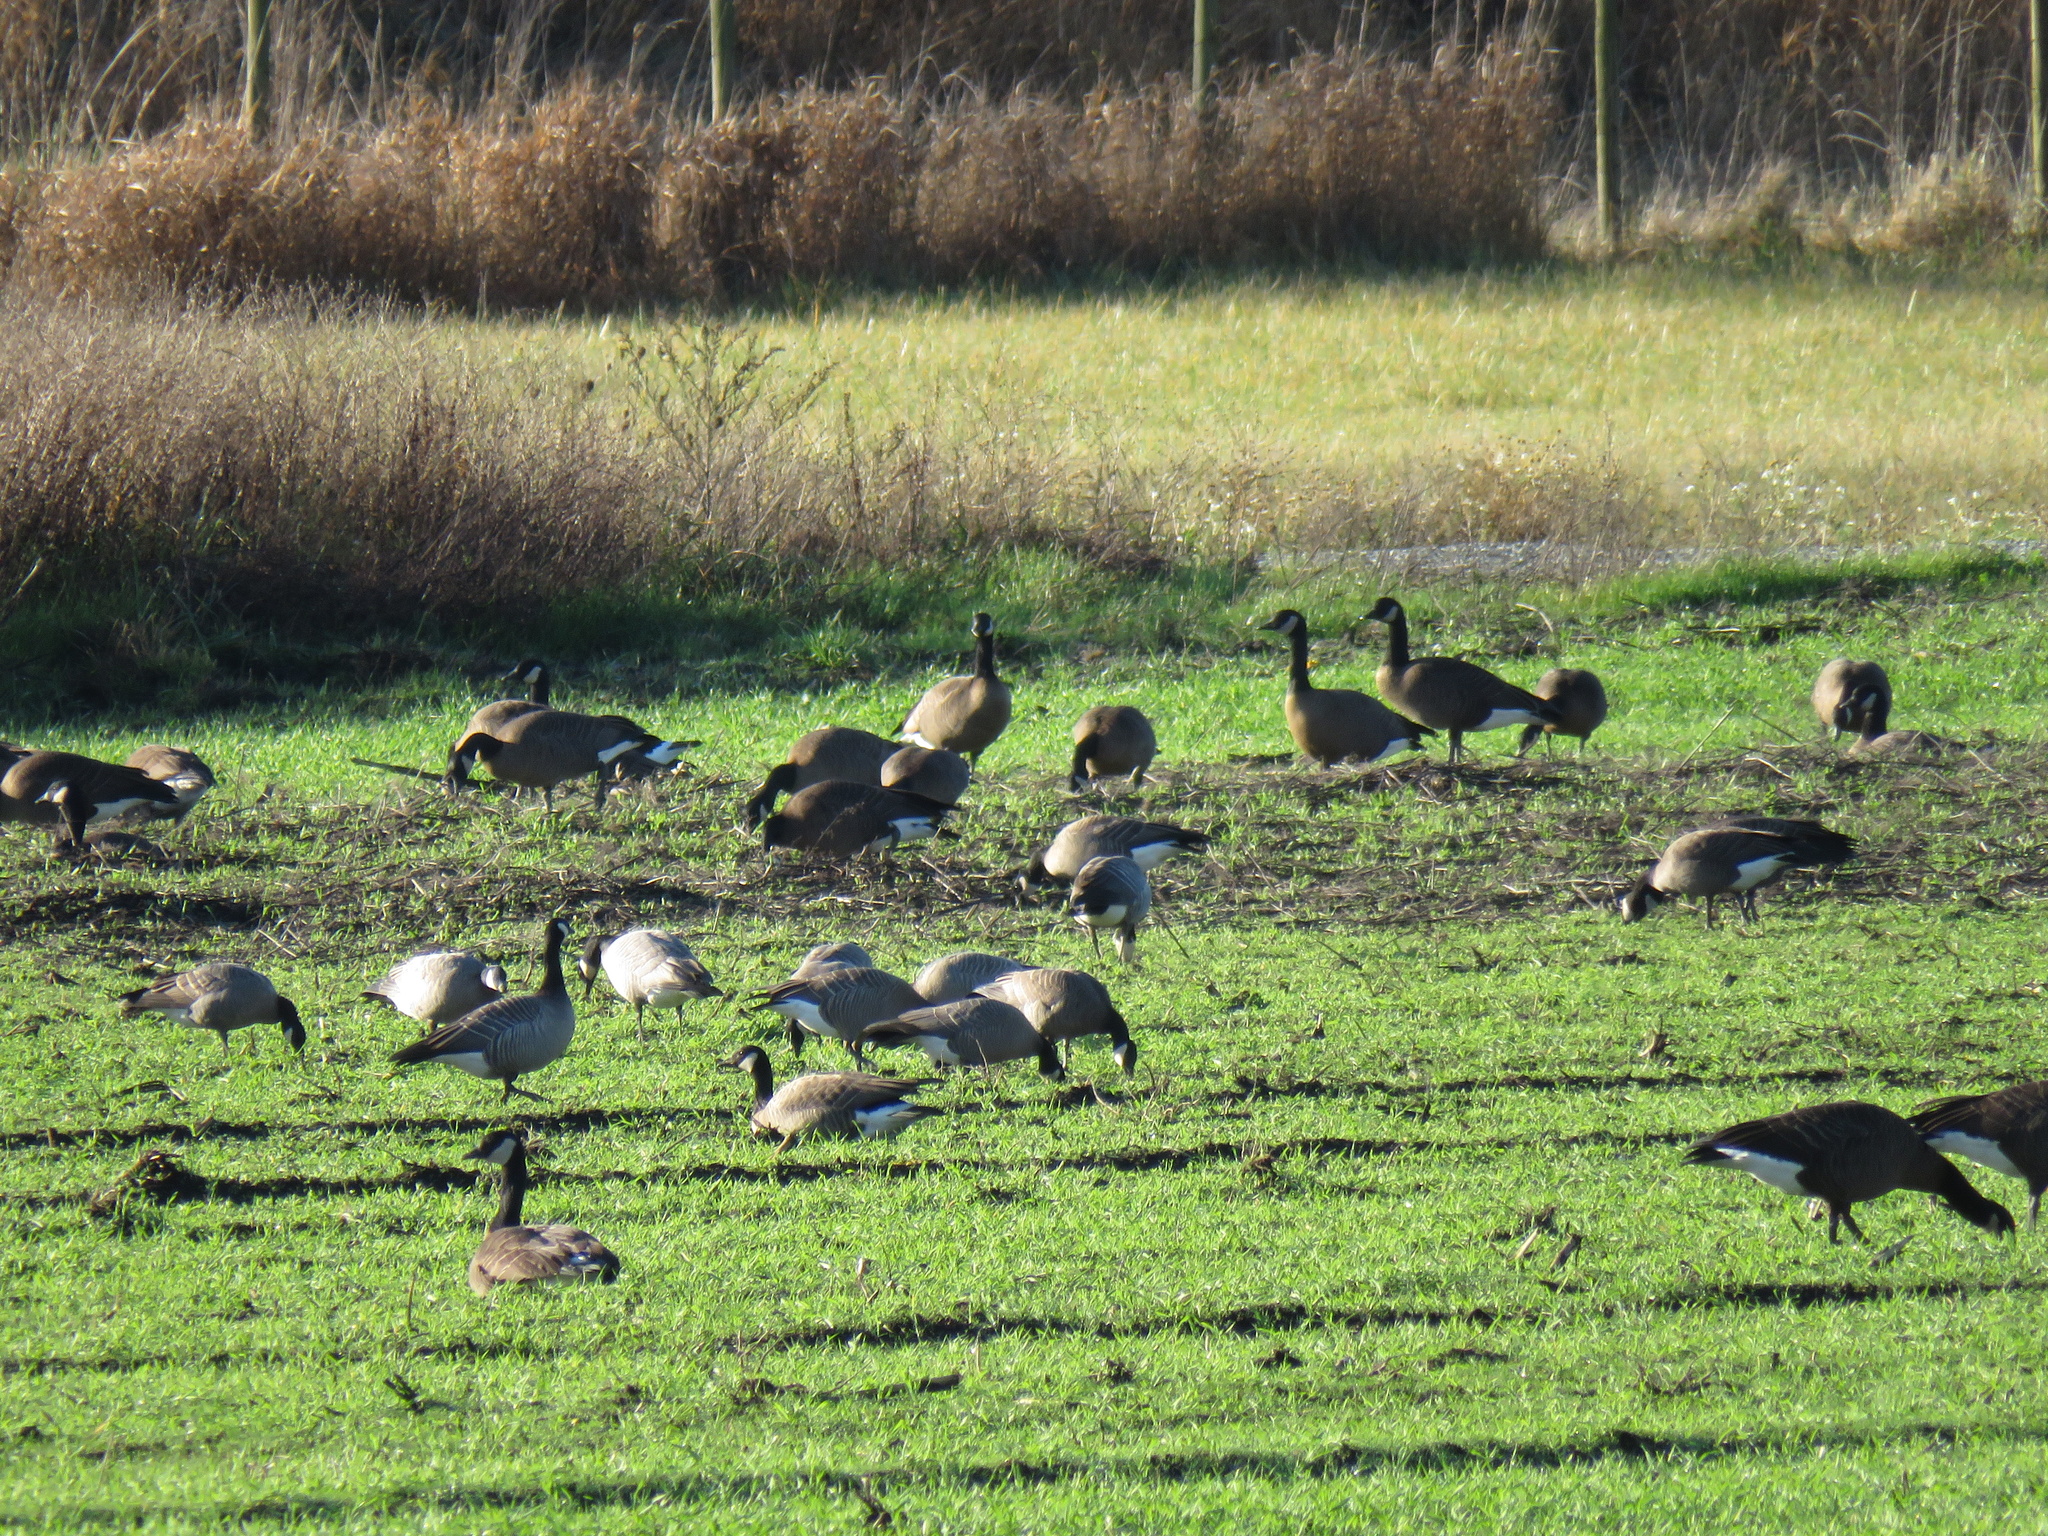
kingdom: Animalia
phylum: Chordata
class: Aves
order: Anseriformes
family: Anatidae
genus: Branta
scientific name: Branta hutchinsii
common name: Cackling goose
